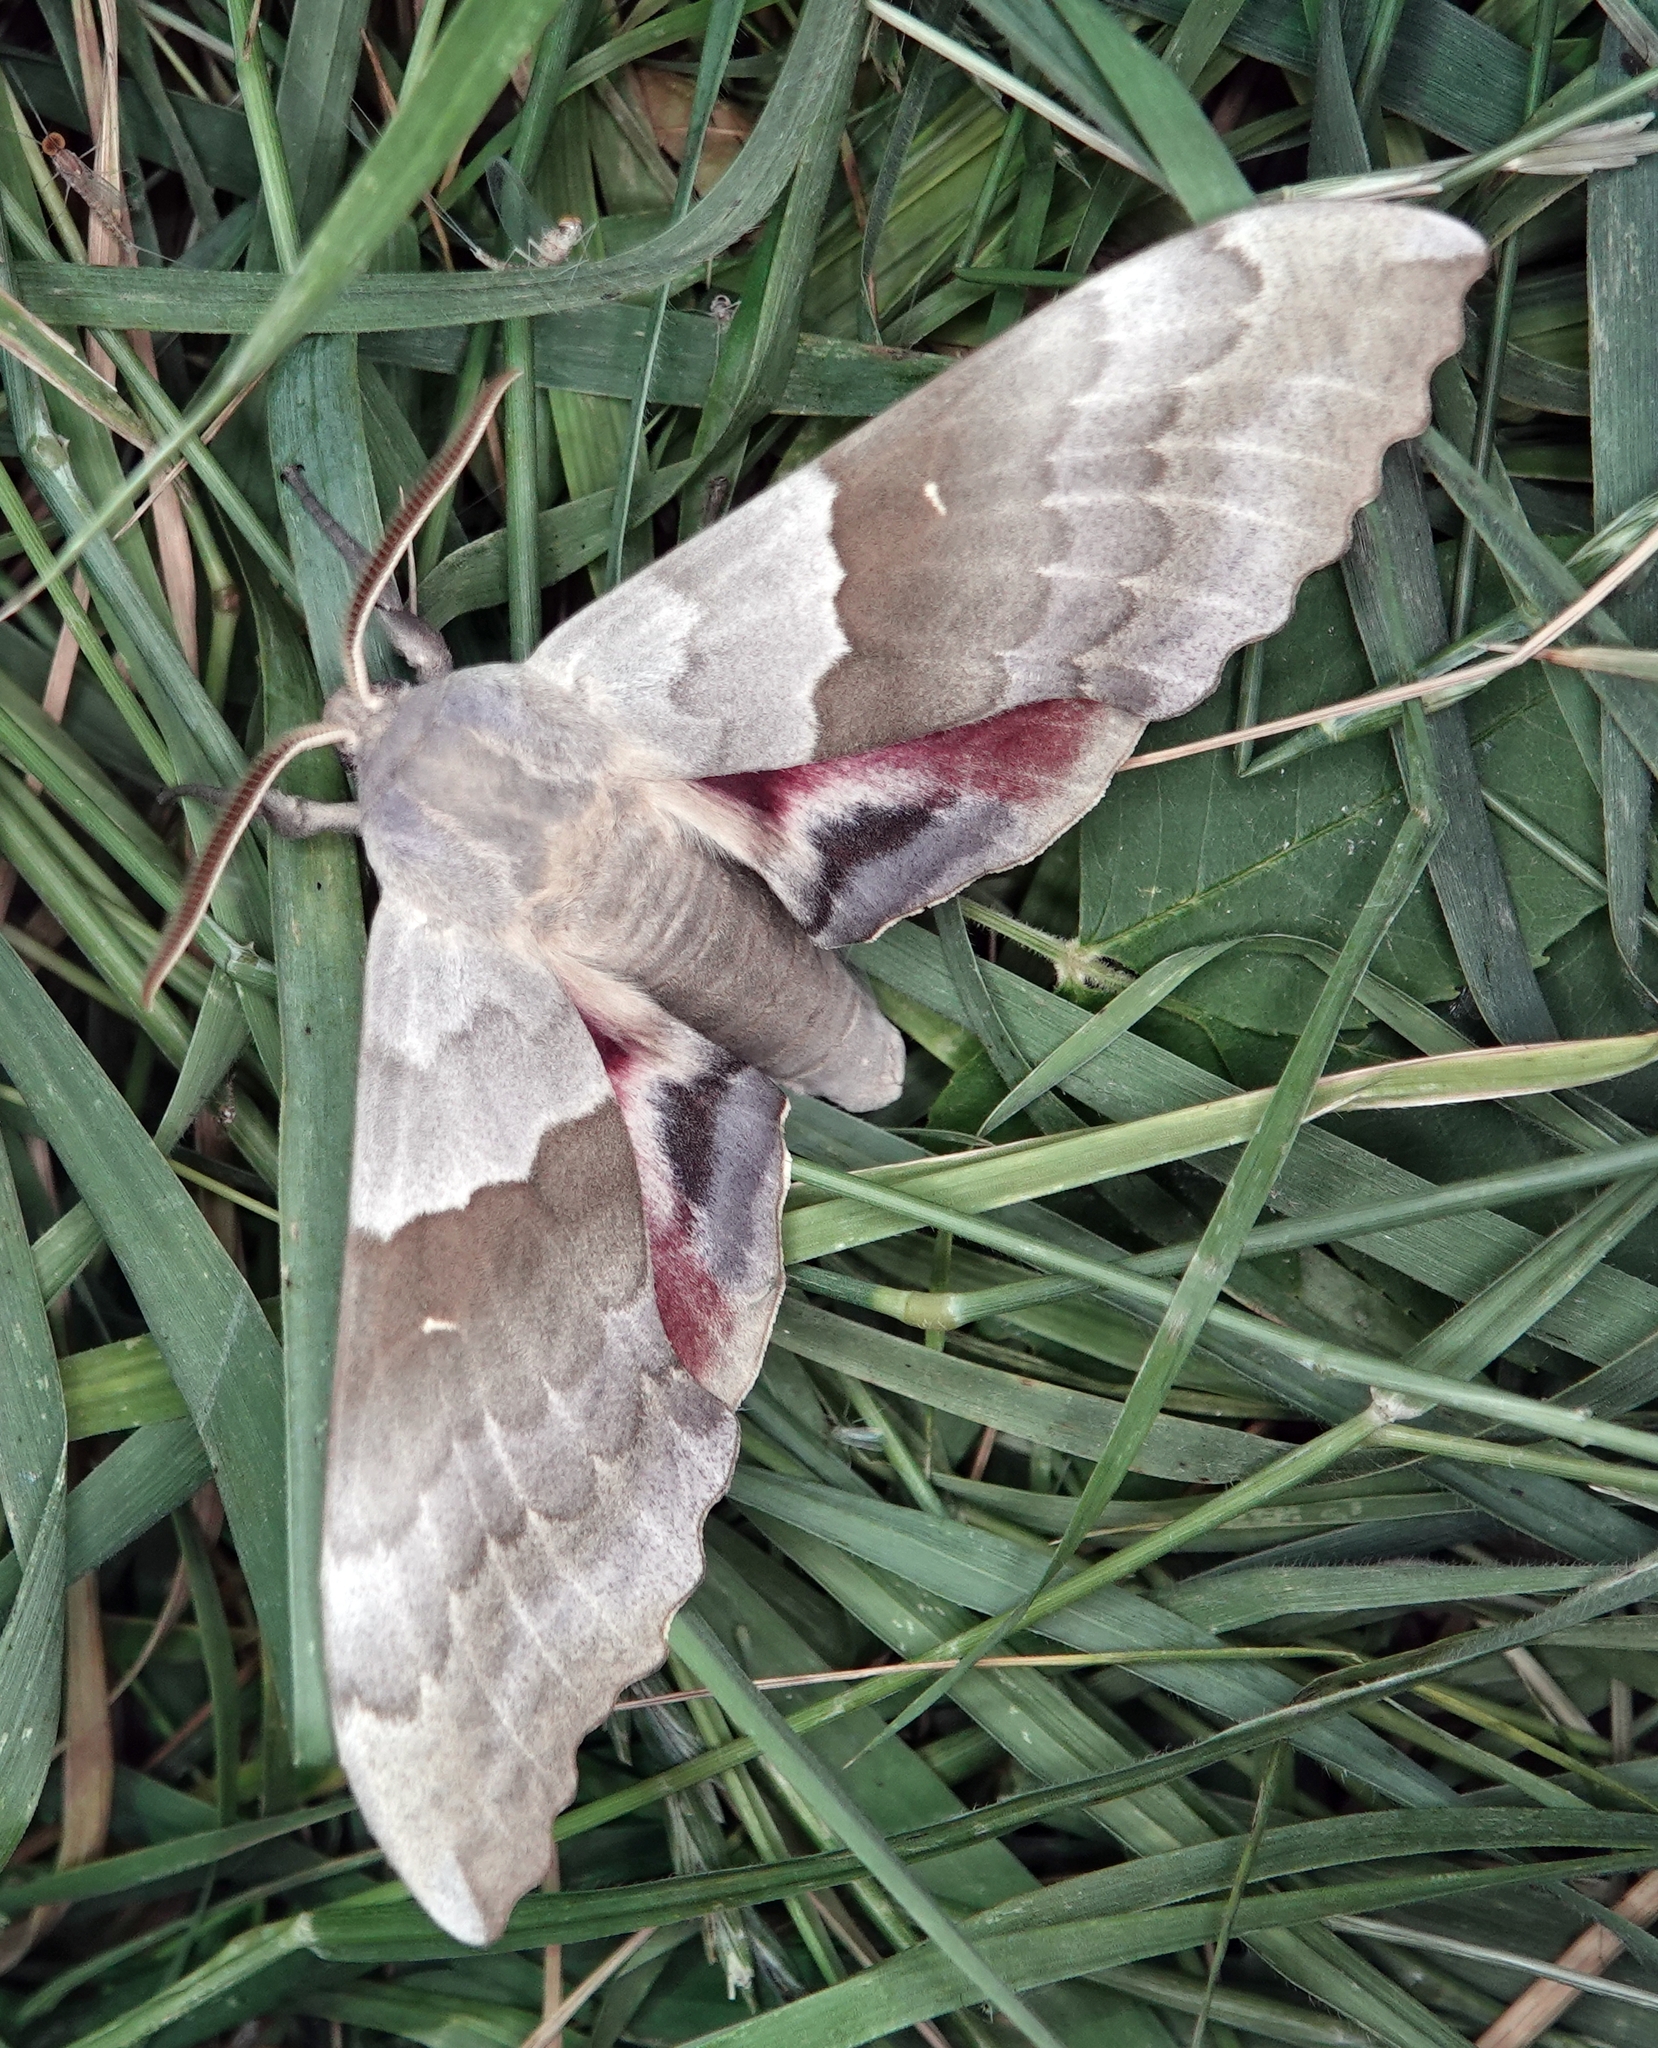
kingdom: Animalia
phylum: Arthropoda
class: Insecta
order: Lepidoptera
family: Sphingidae
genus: Pachysphinx
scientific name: Pachysphinx modesta
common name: Big poplar sphinx
